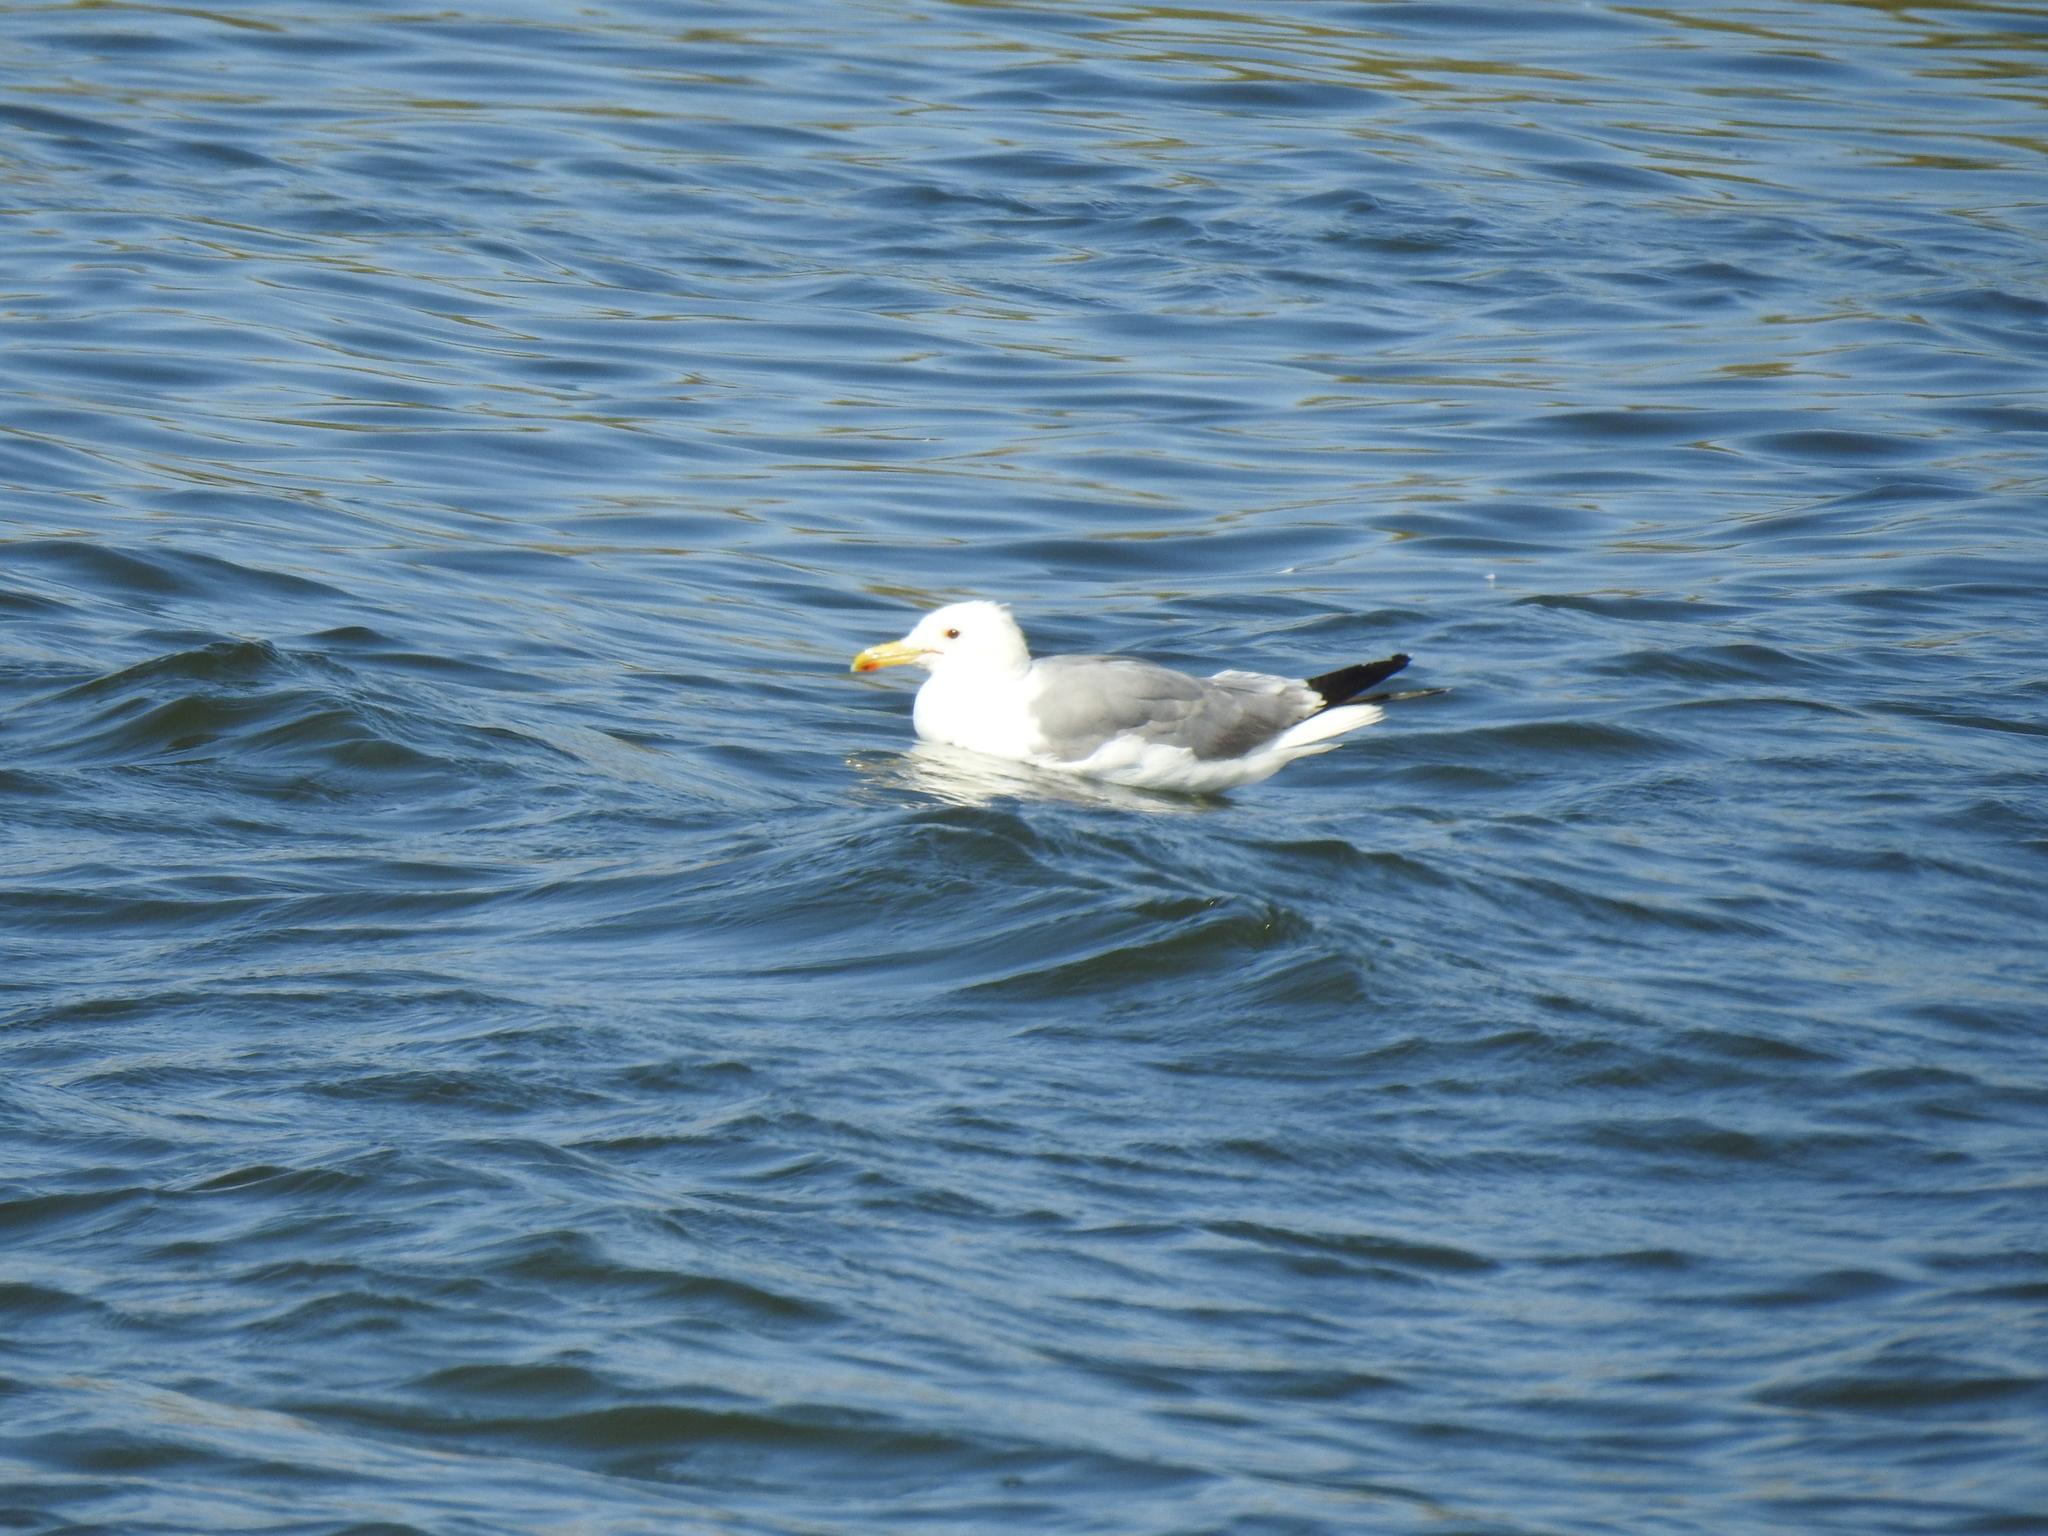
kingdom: Animalia
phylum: Chordata
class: Aves
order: Charadriiformes
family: Laridae
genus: Larus
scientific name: Larus californicus
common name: California gull
